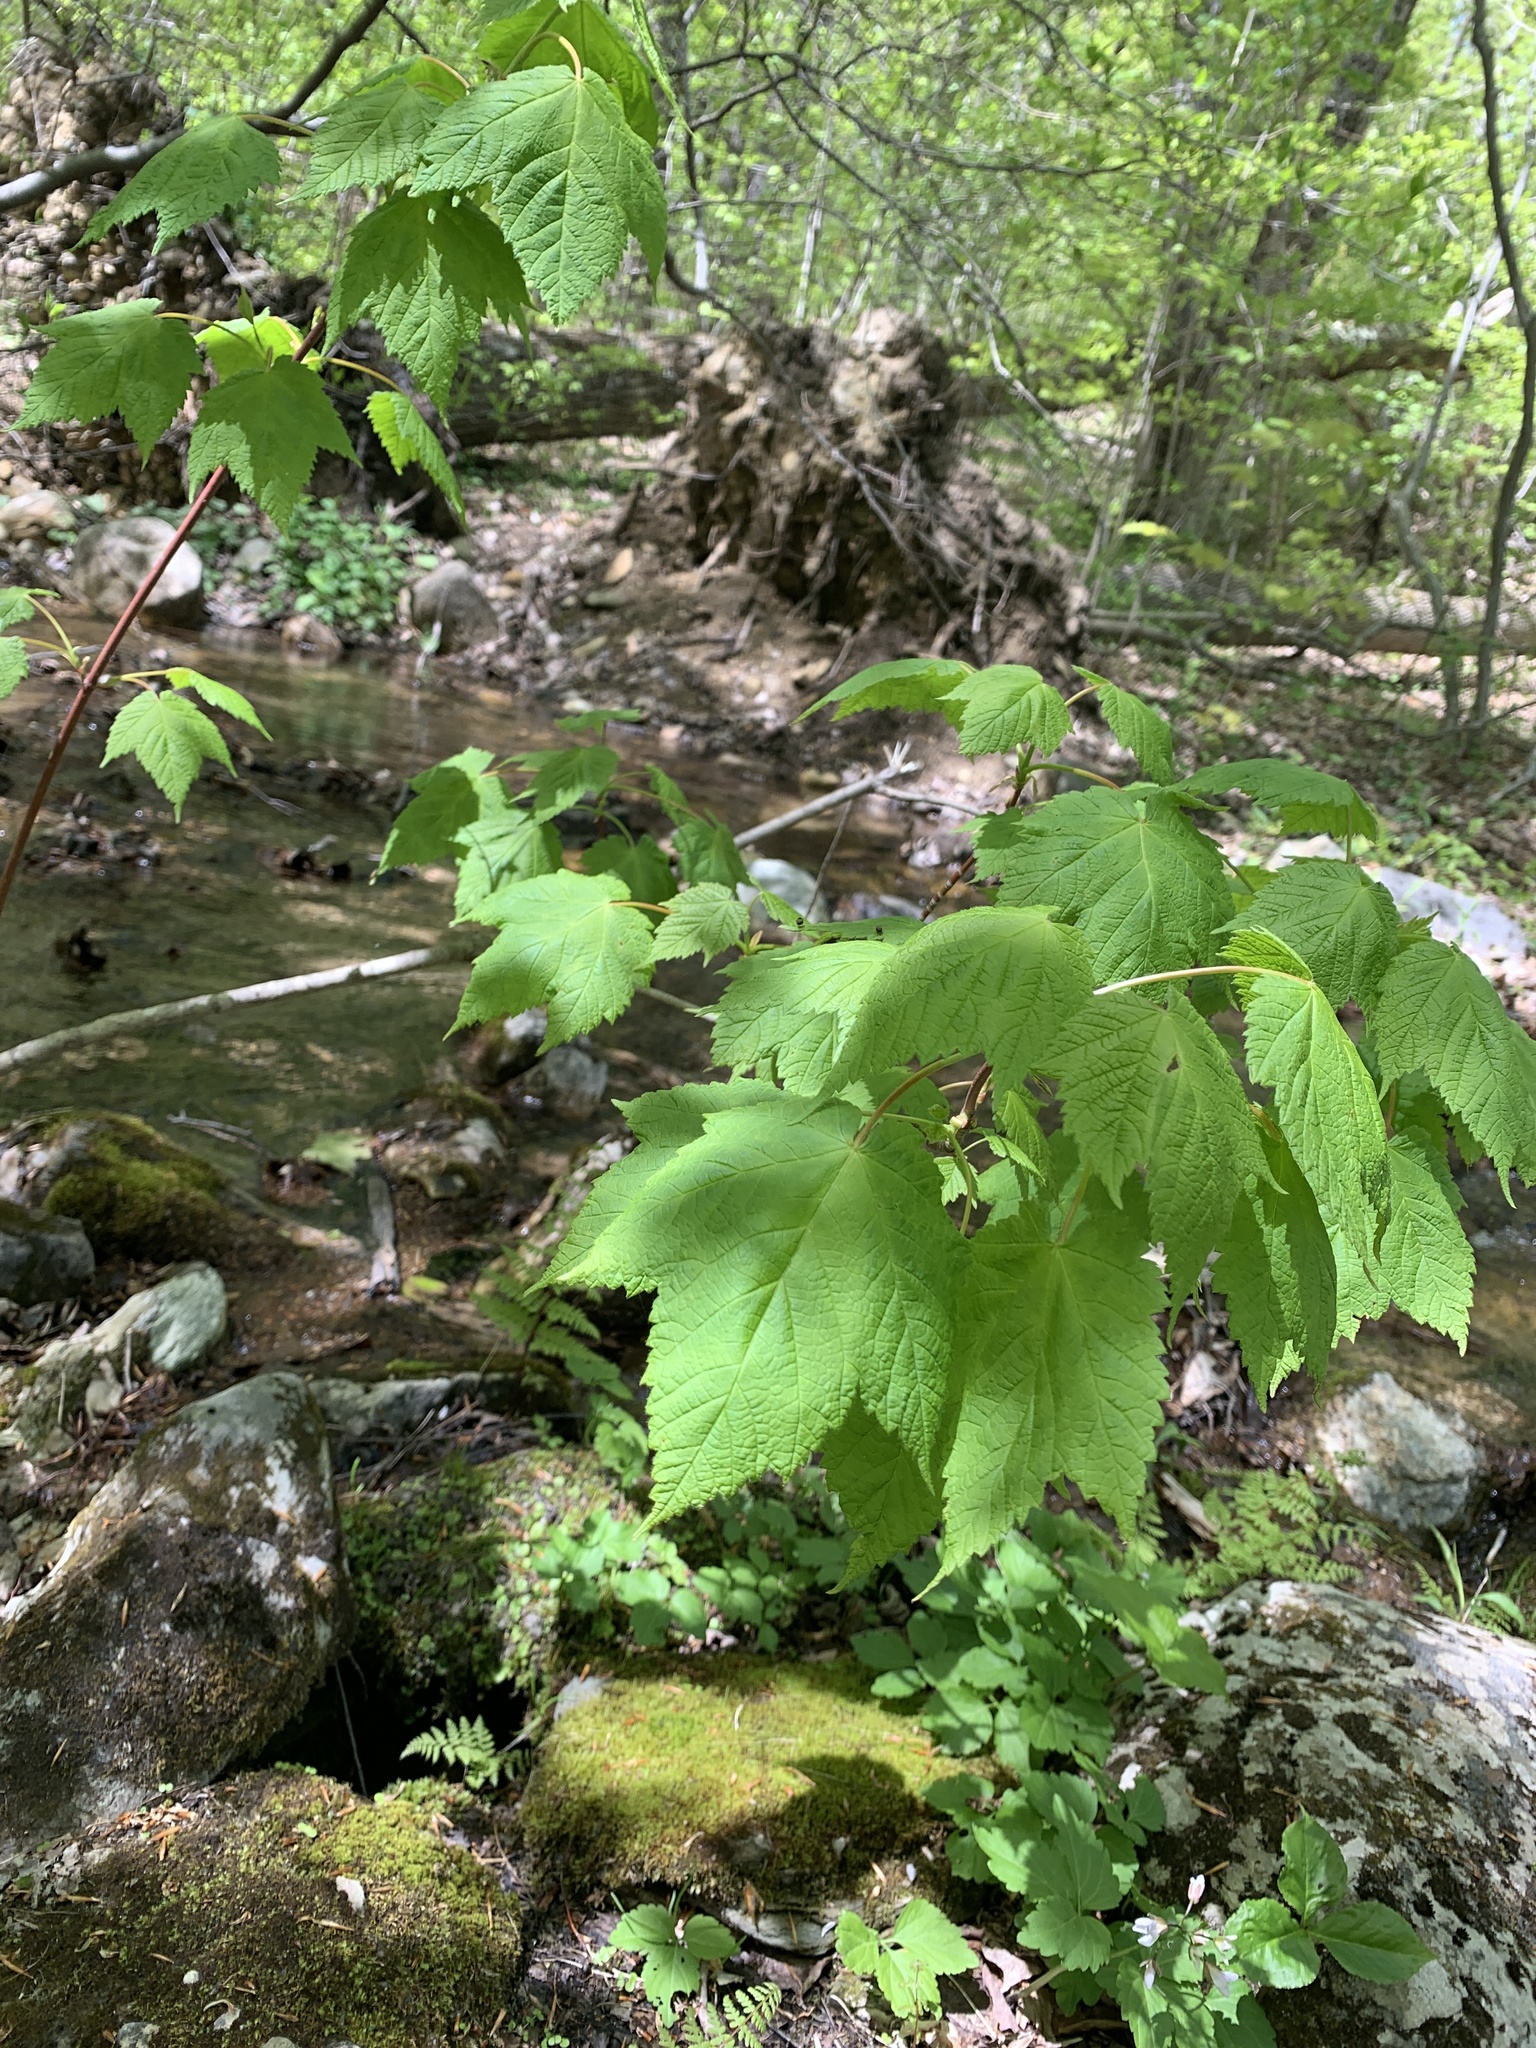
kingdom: Plantae
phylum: Tracheophyta
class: Magnoliopsida
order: Sapindales
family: Sapindaceae
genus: Acer
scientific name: Acer spicatum
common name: Mountain maple
